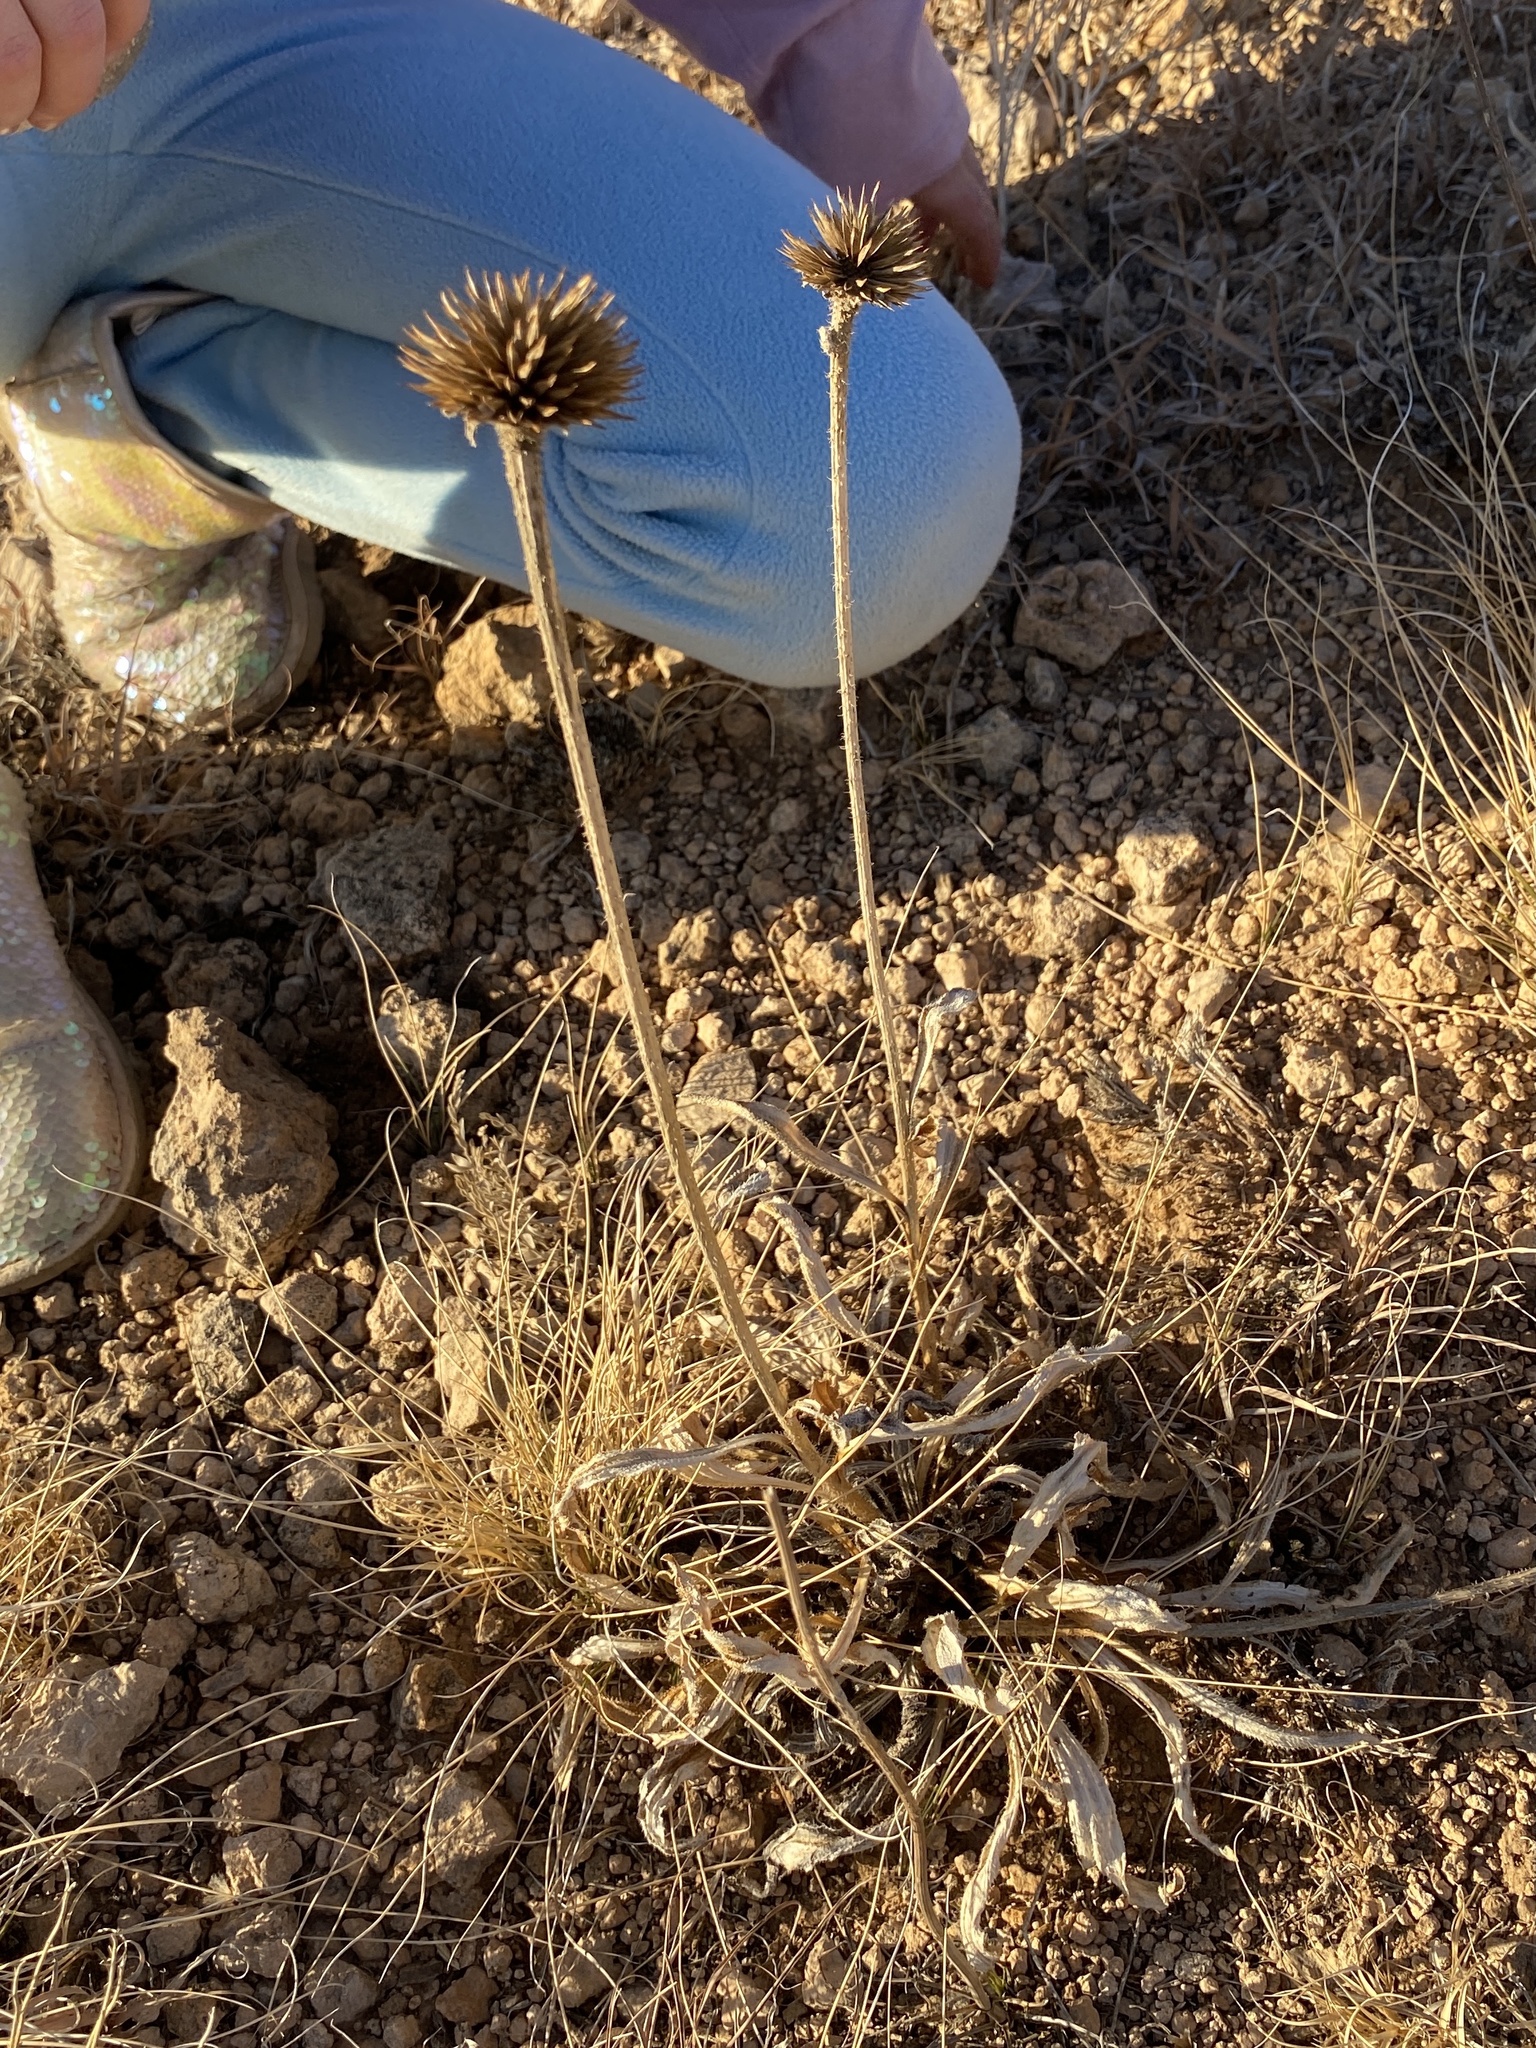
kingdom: Plantae
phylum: Tracheophyta
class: Magnoliopsida
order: Asterales
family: Asteraceae
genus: Echinacea
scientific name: Echinacea angustifolia
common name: Black-sampson echinacea
